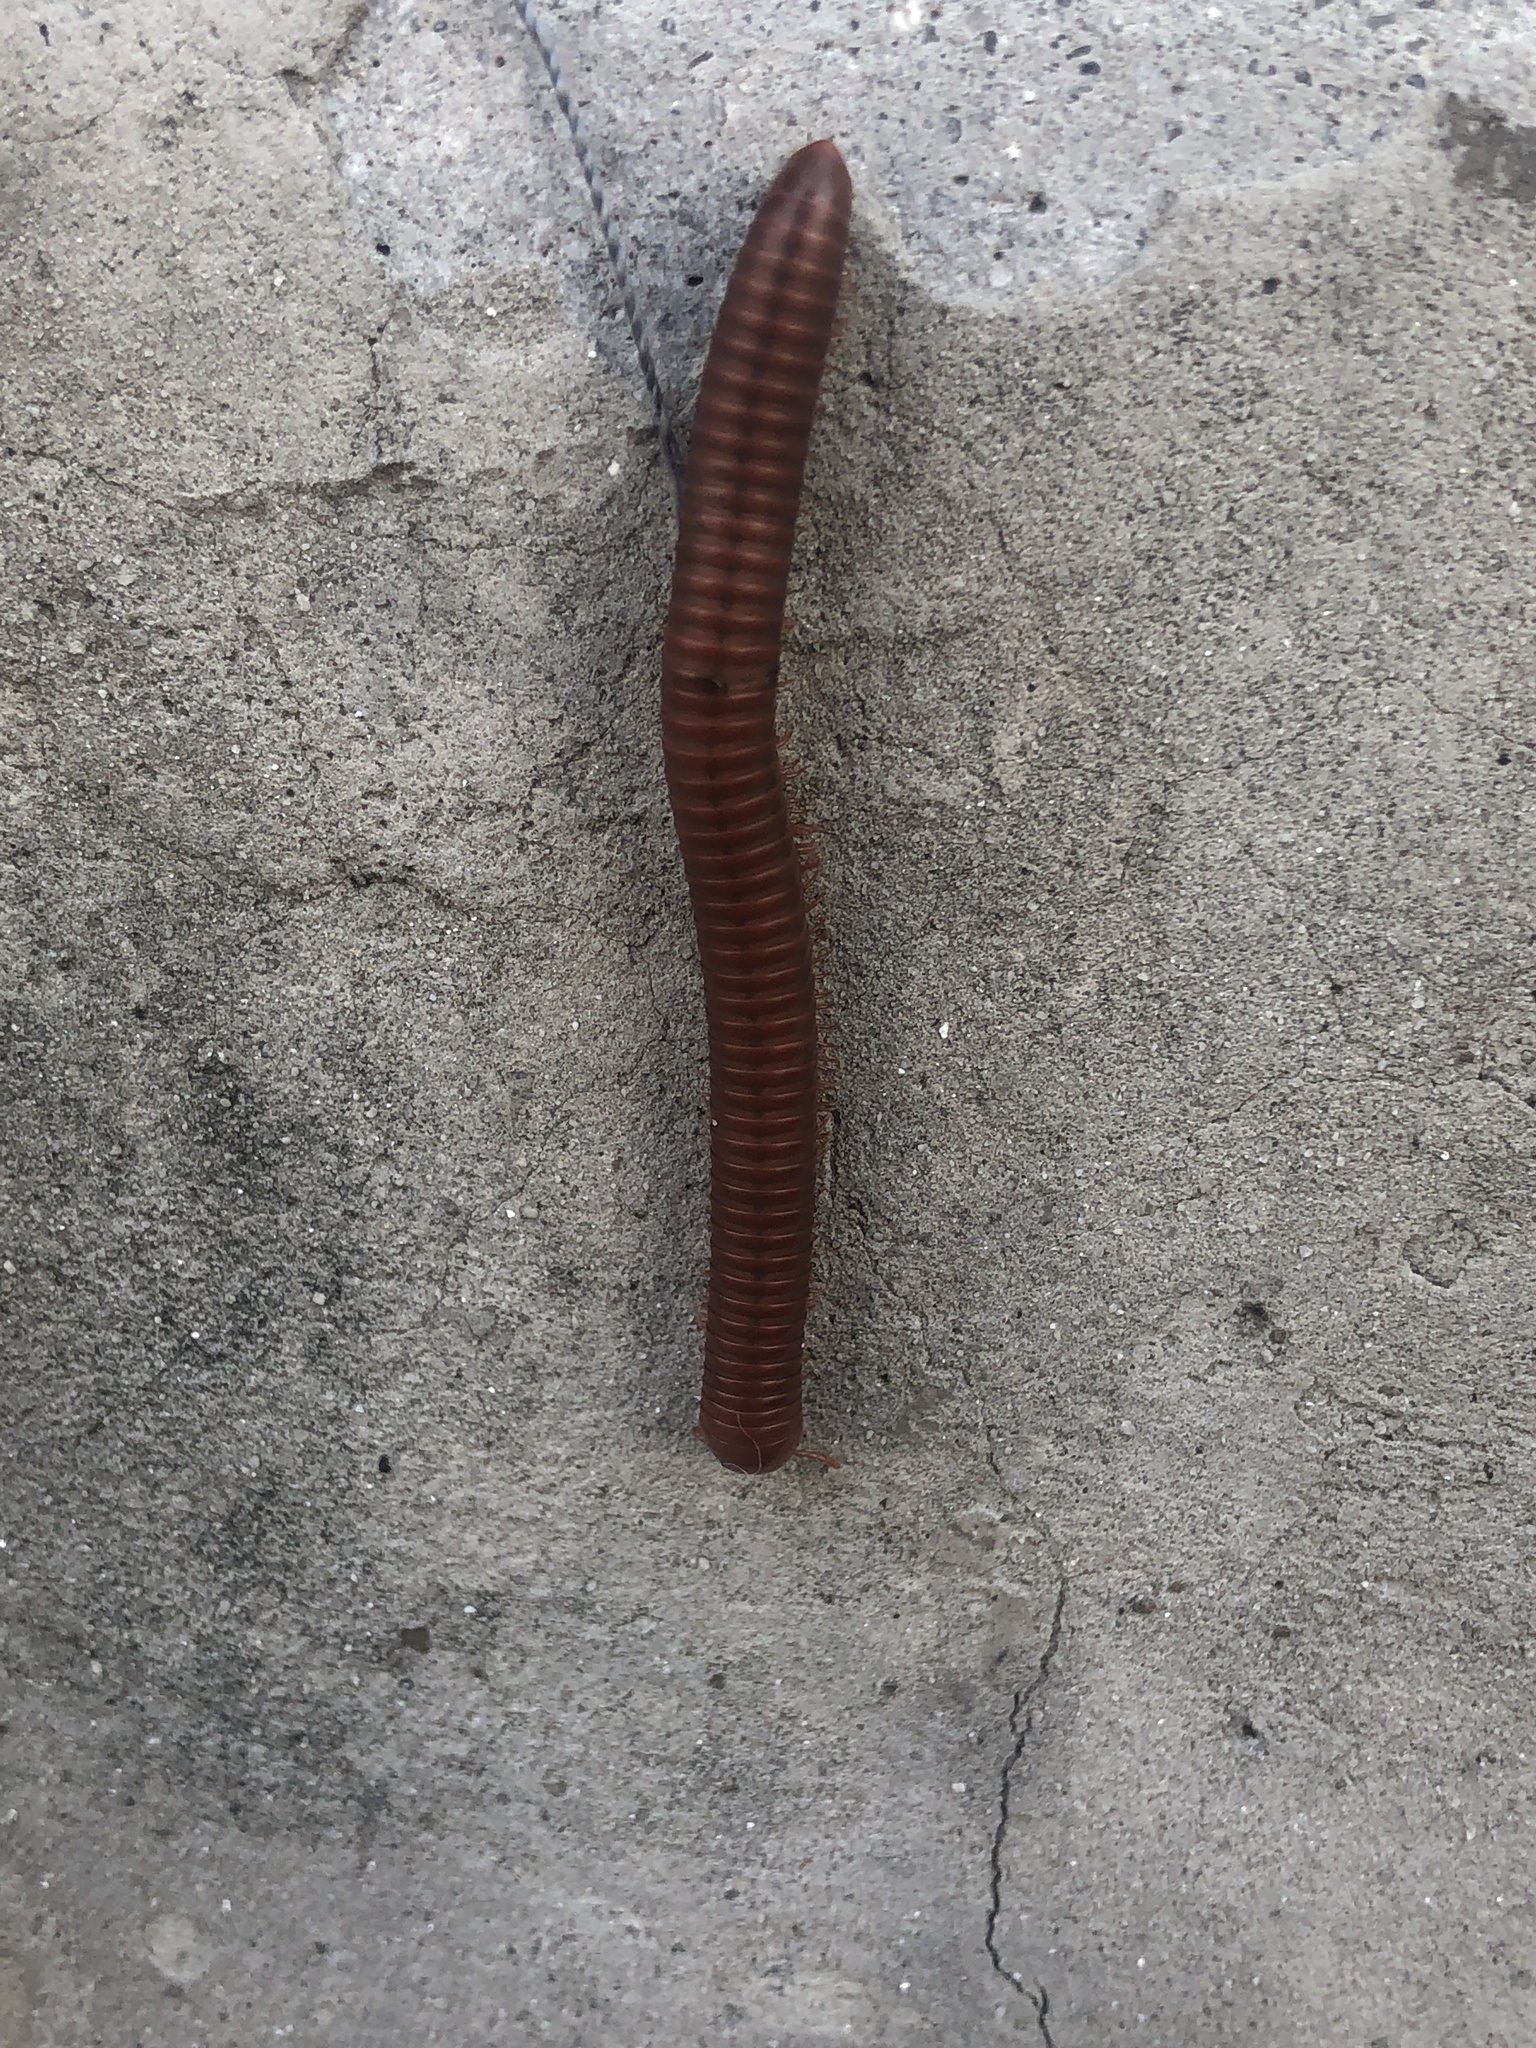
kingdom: Animalia
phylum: Arthropoda
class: Diplopoda
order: Spirobolida
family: Pachybolidae
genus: Trigoniulus
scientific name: Trigoniulus corallinus
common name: Millipede
